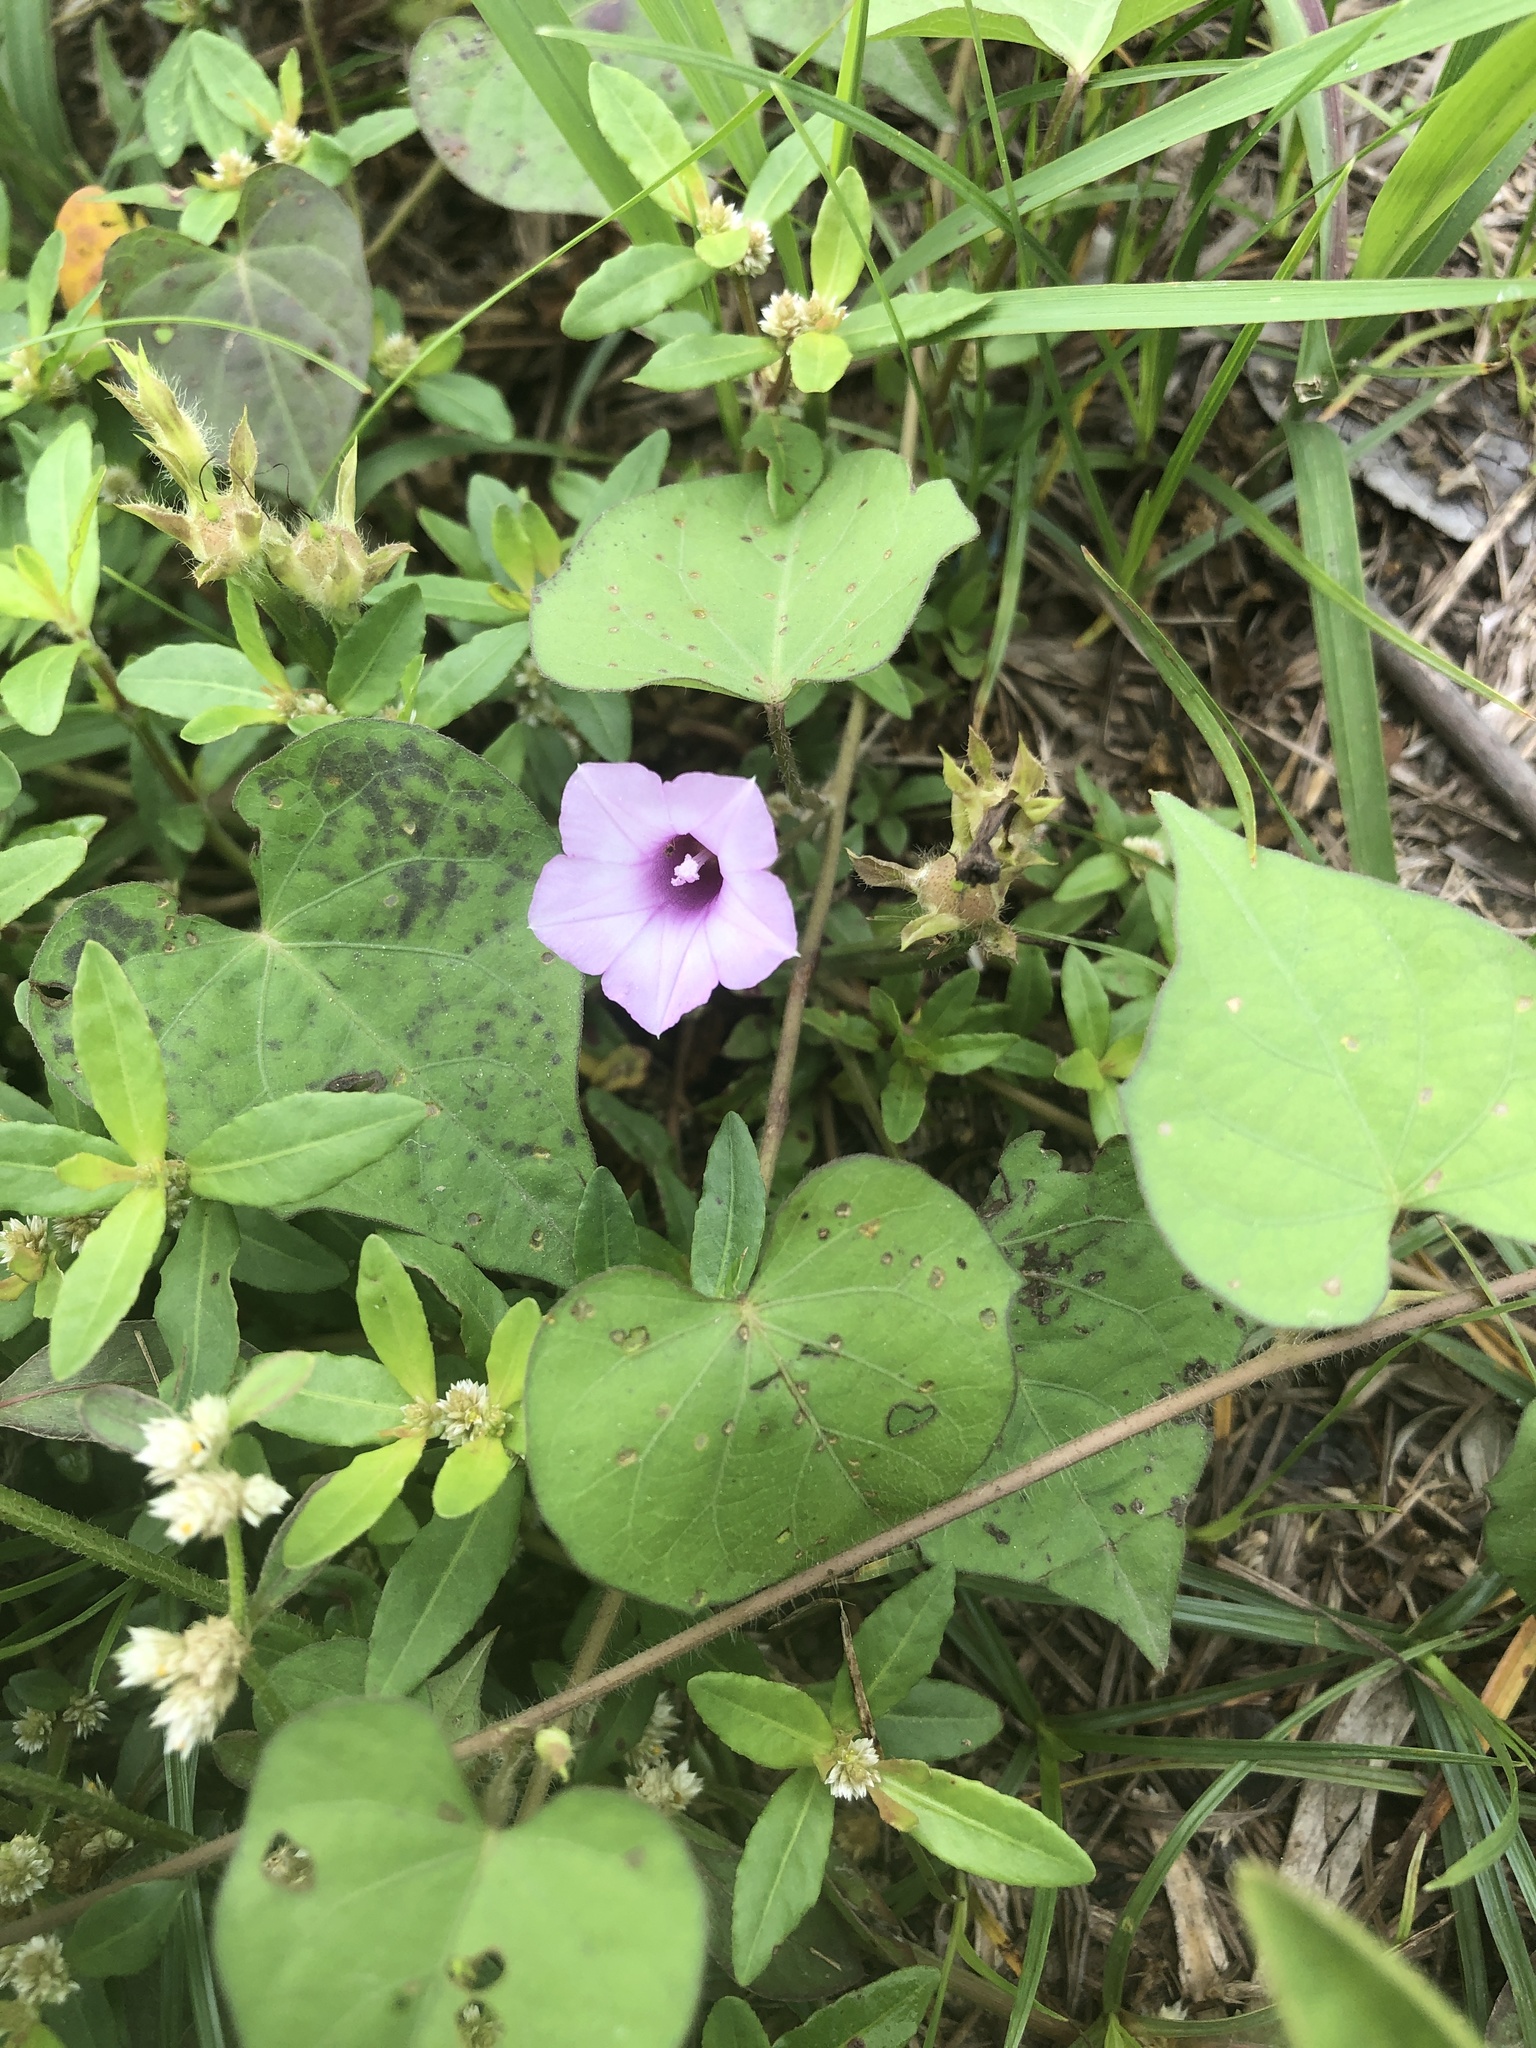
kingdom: Plantae
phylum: Tracheophyta
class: Magnoliopsida
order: Solanales
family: Convolvulaceae
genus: Ipomoea
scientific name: Ipomoea triloba
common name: Little-bell
